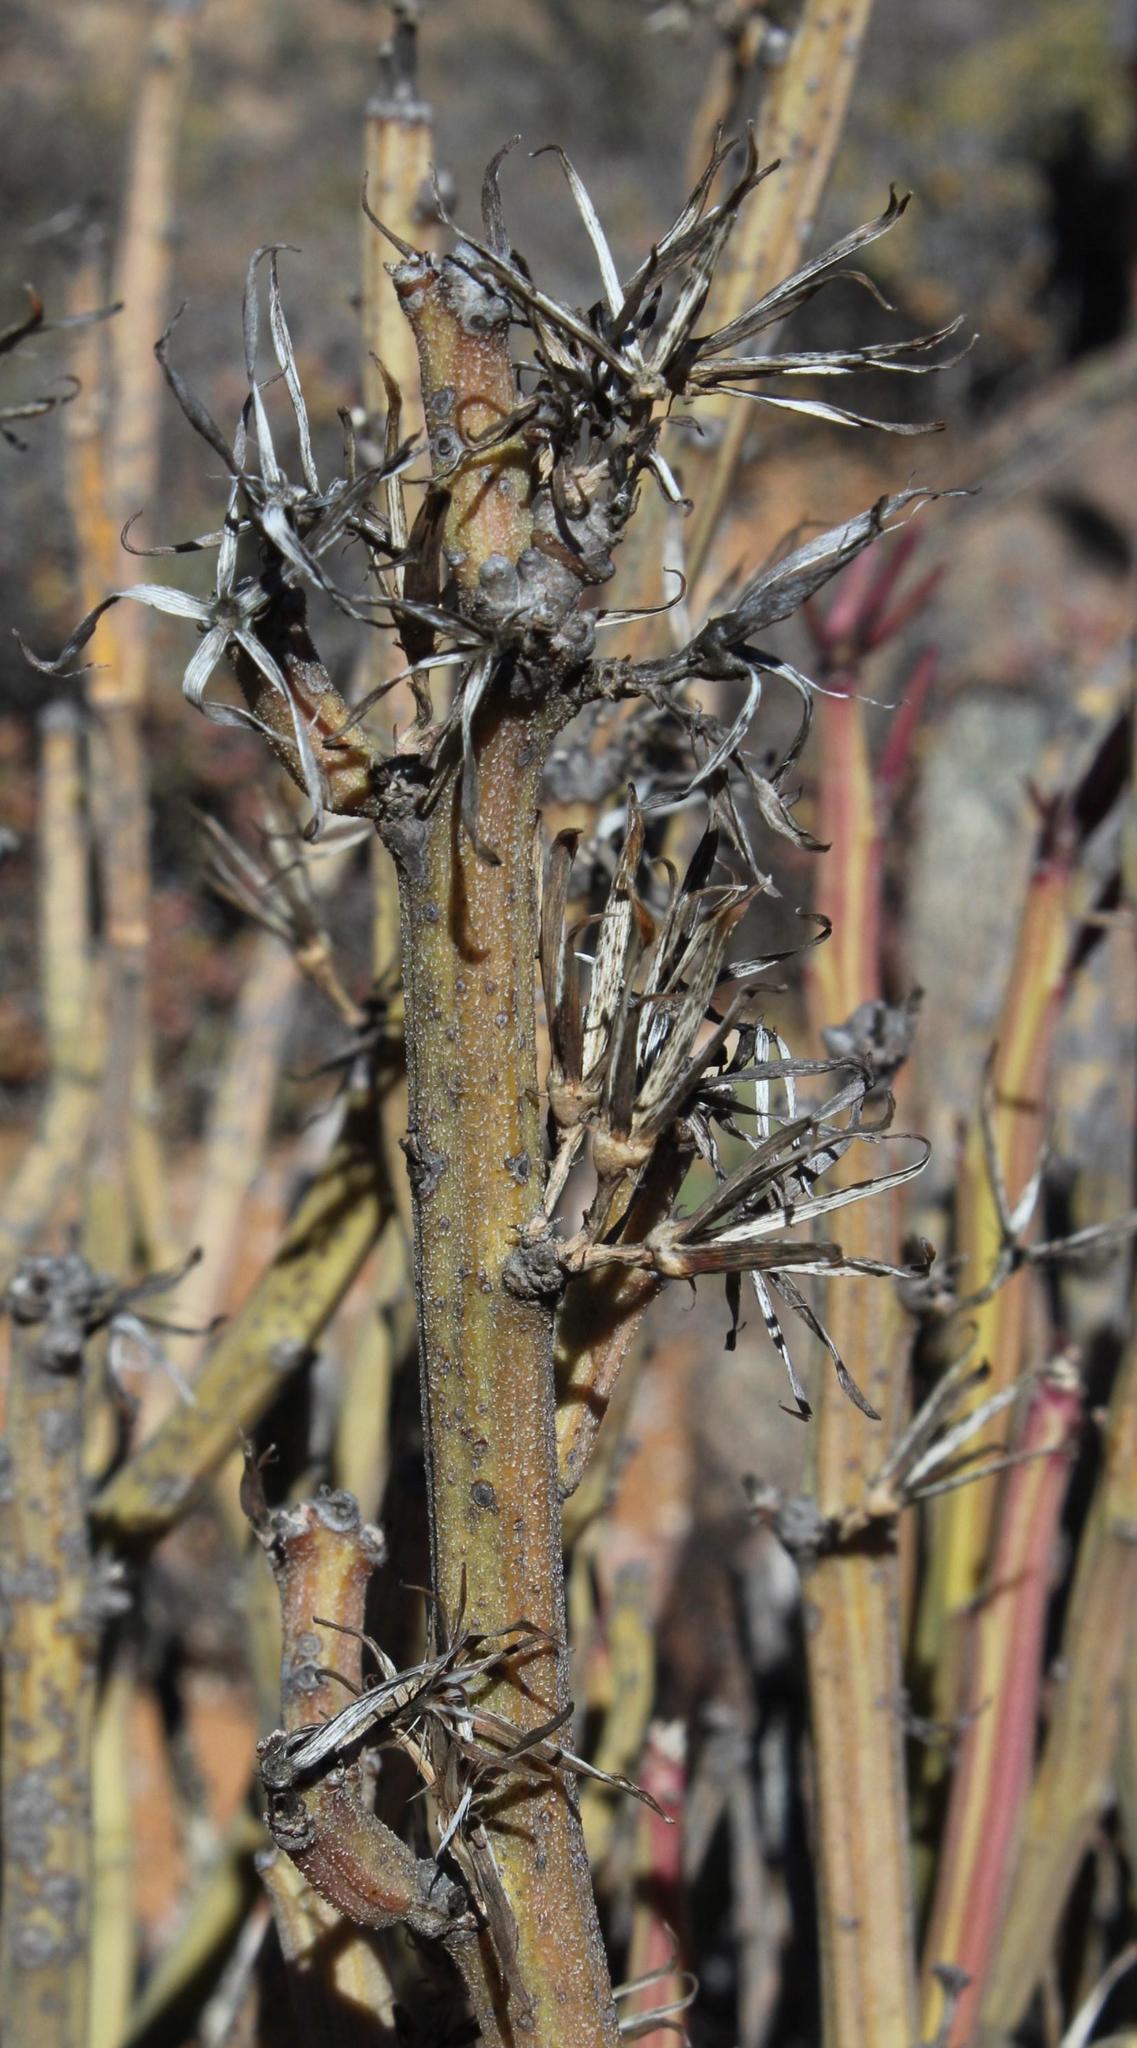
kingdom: Plantae
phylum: Tracheophyta
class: Magnoliopsida
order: Asterales
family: Asteraceae
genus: Curio
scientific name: Curio avasimontanus
